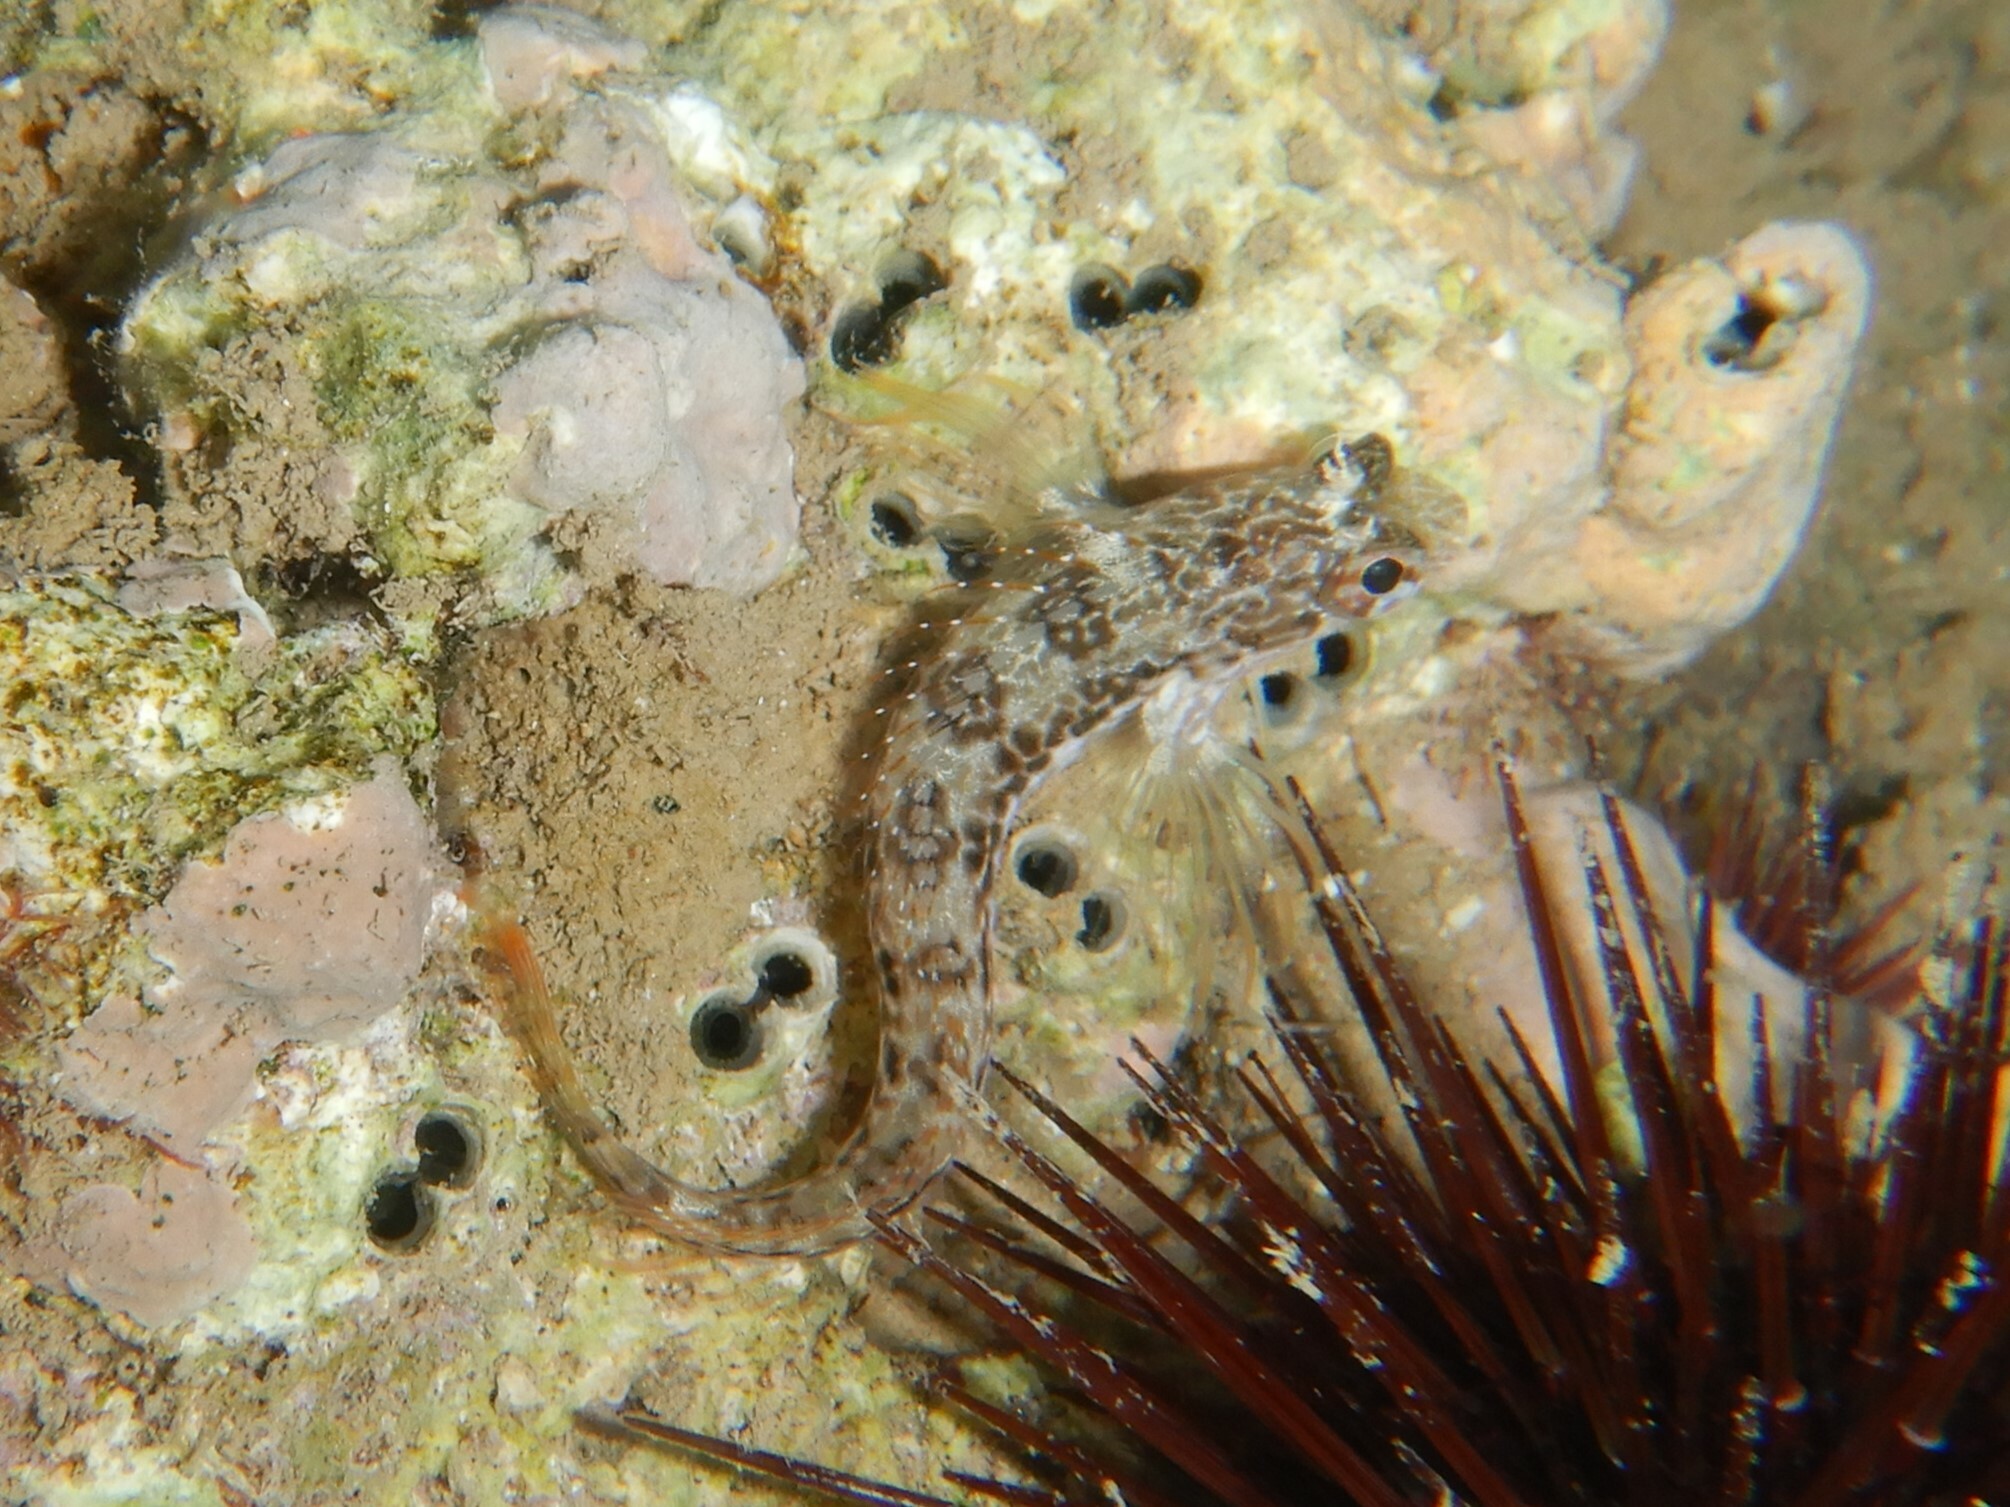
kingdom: Animalia
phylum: Chordata
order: Perciformes
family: Blenniidae
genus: Parablennius
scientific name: Parablennius pilicornis
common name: Ringneck blenny
